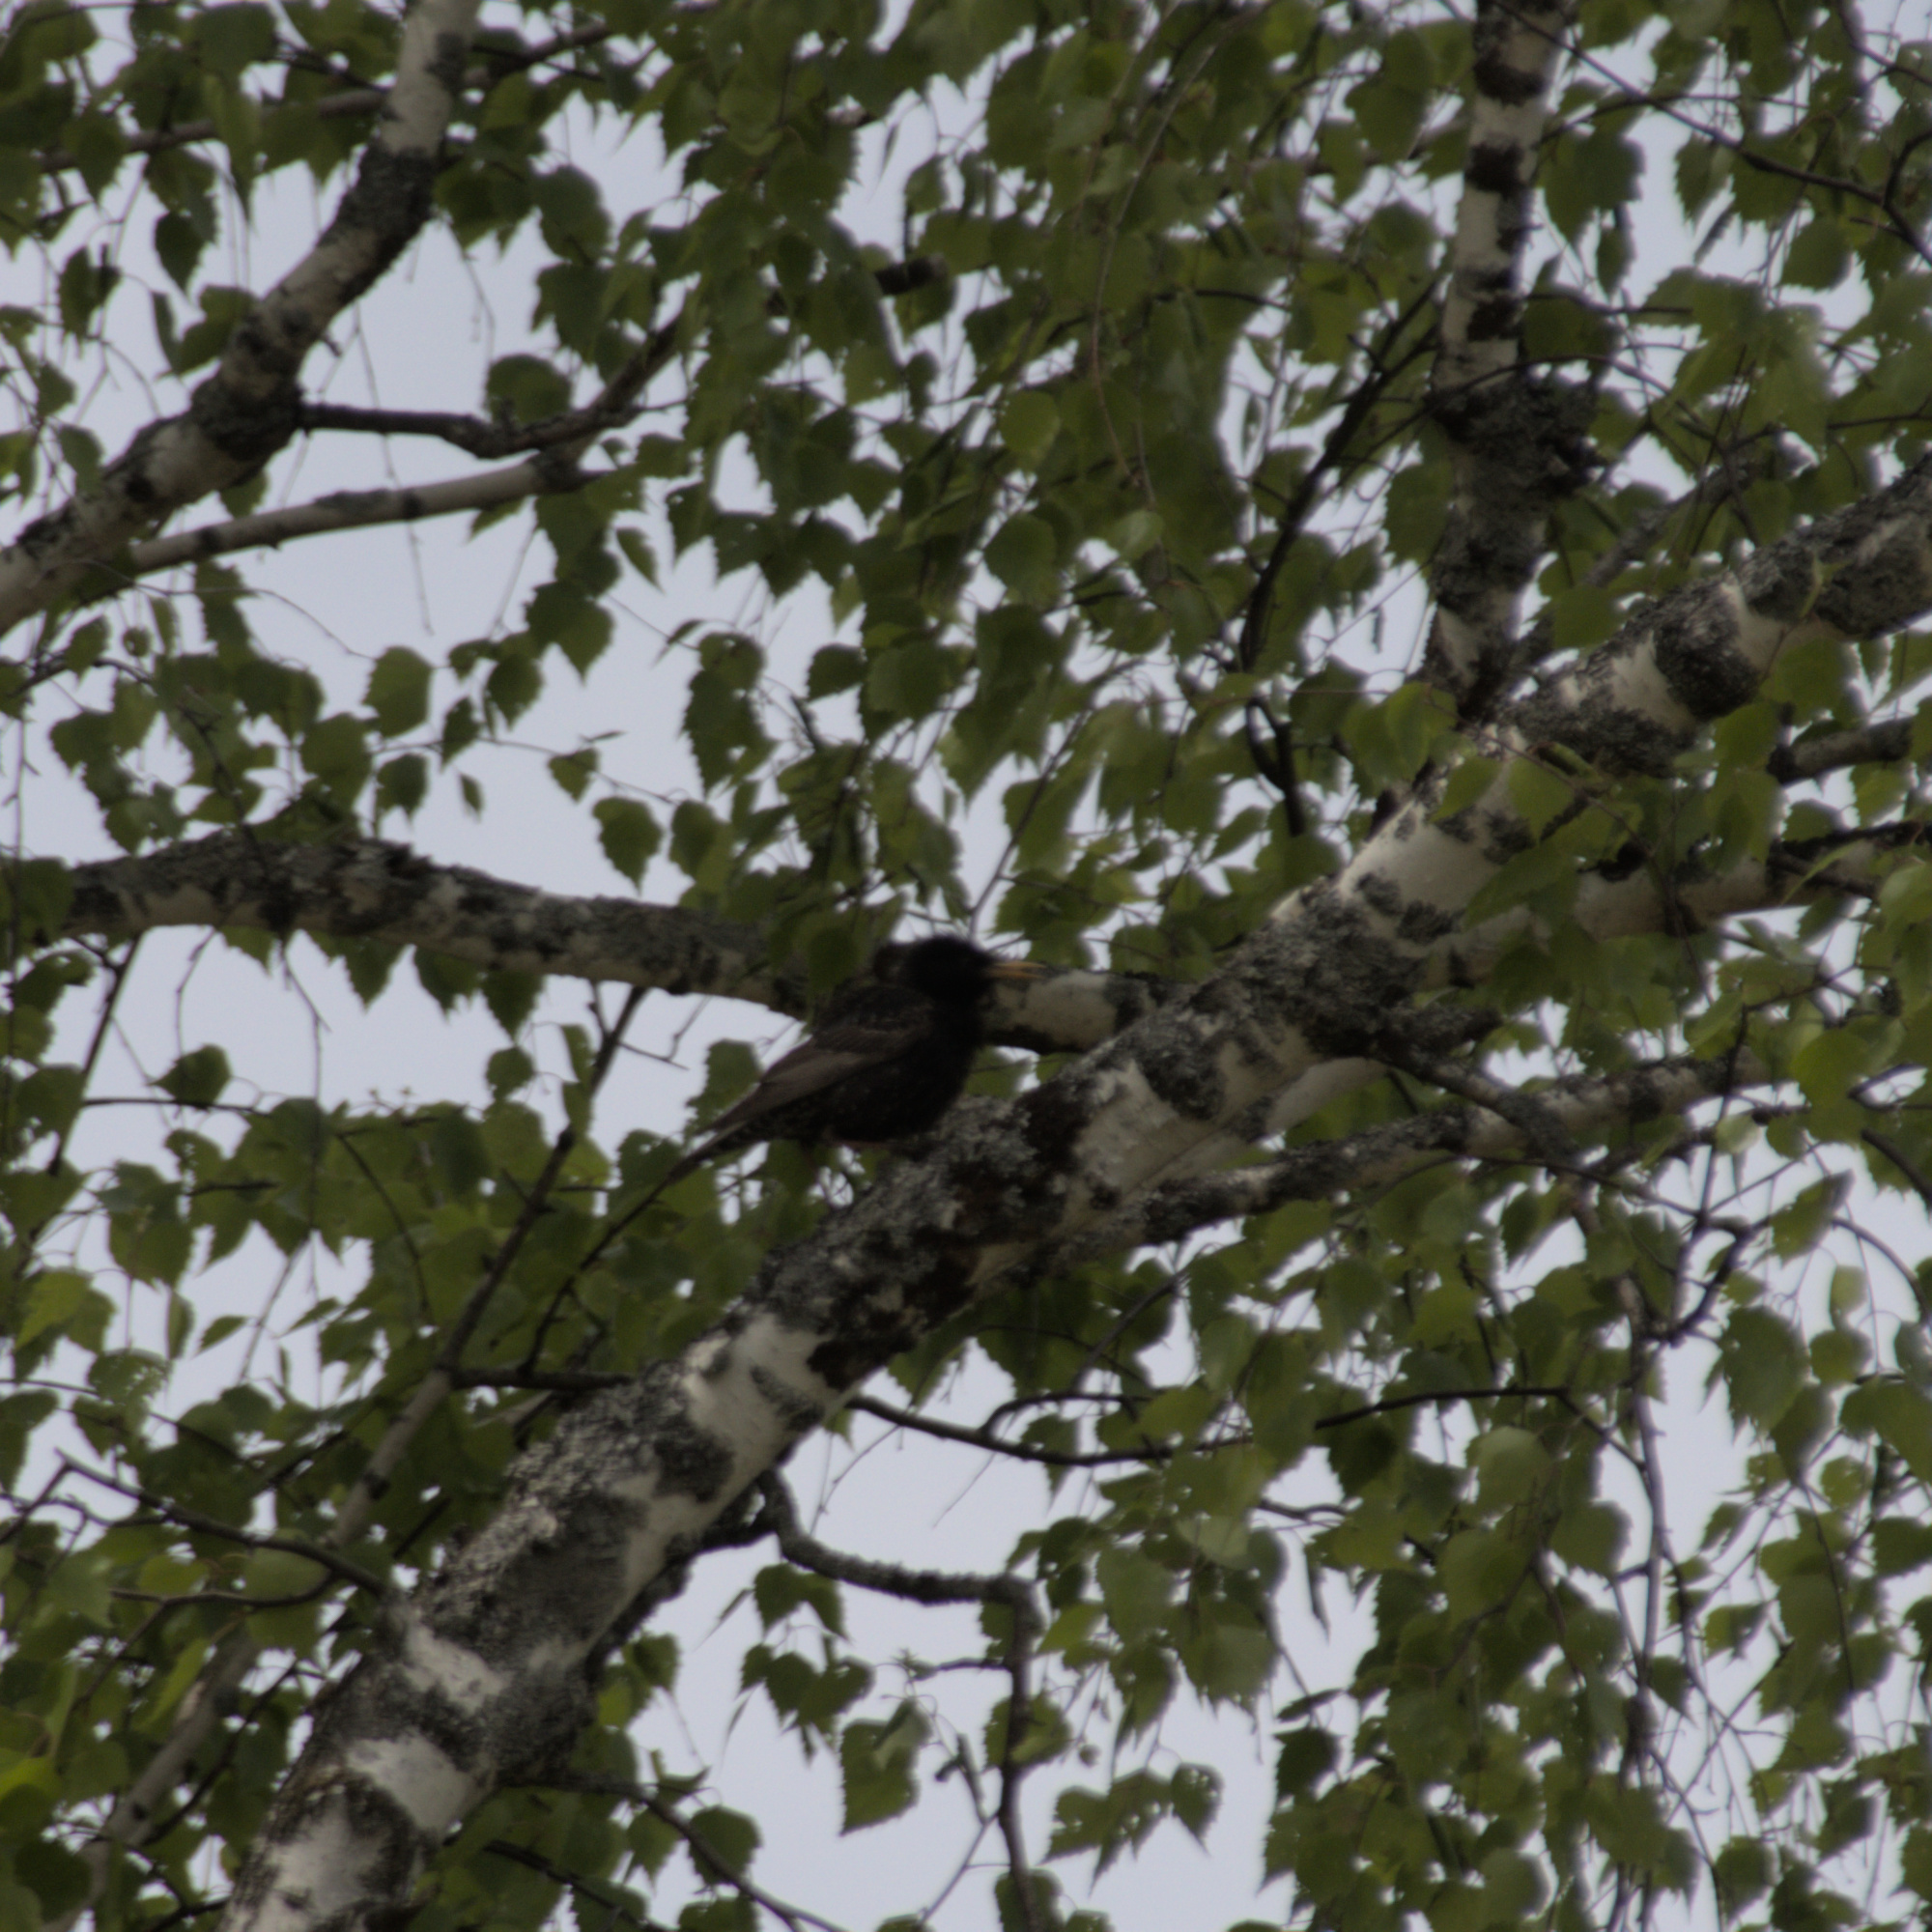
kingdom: Animalia
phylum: Chordata
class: Aves
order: Passeriformes
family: Sturnidae
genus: Sturnus
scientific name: Sturnus vulgaris
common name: Common starling
